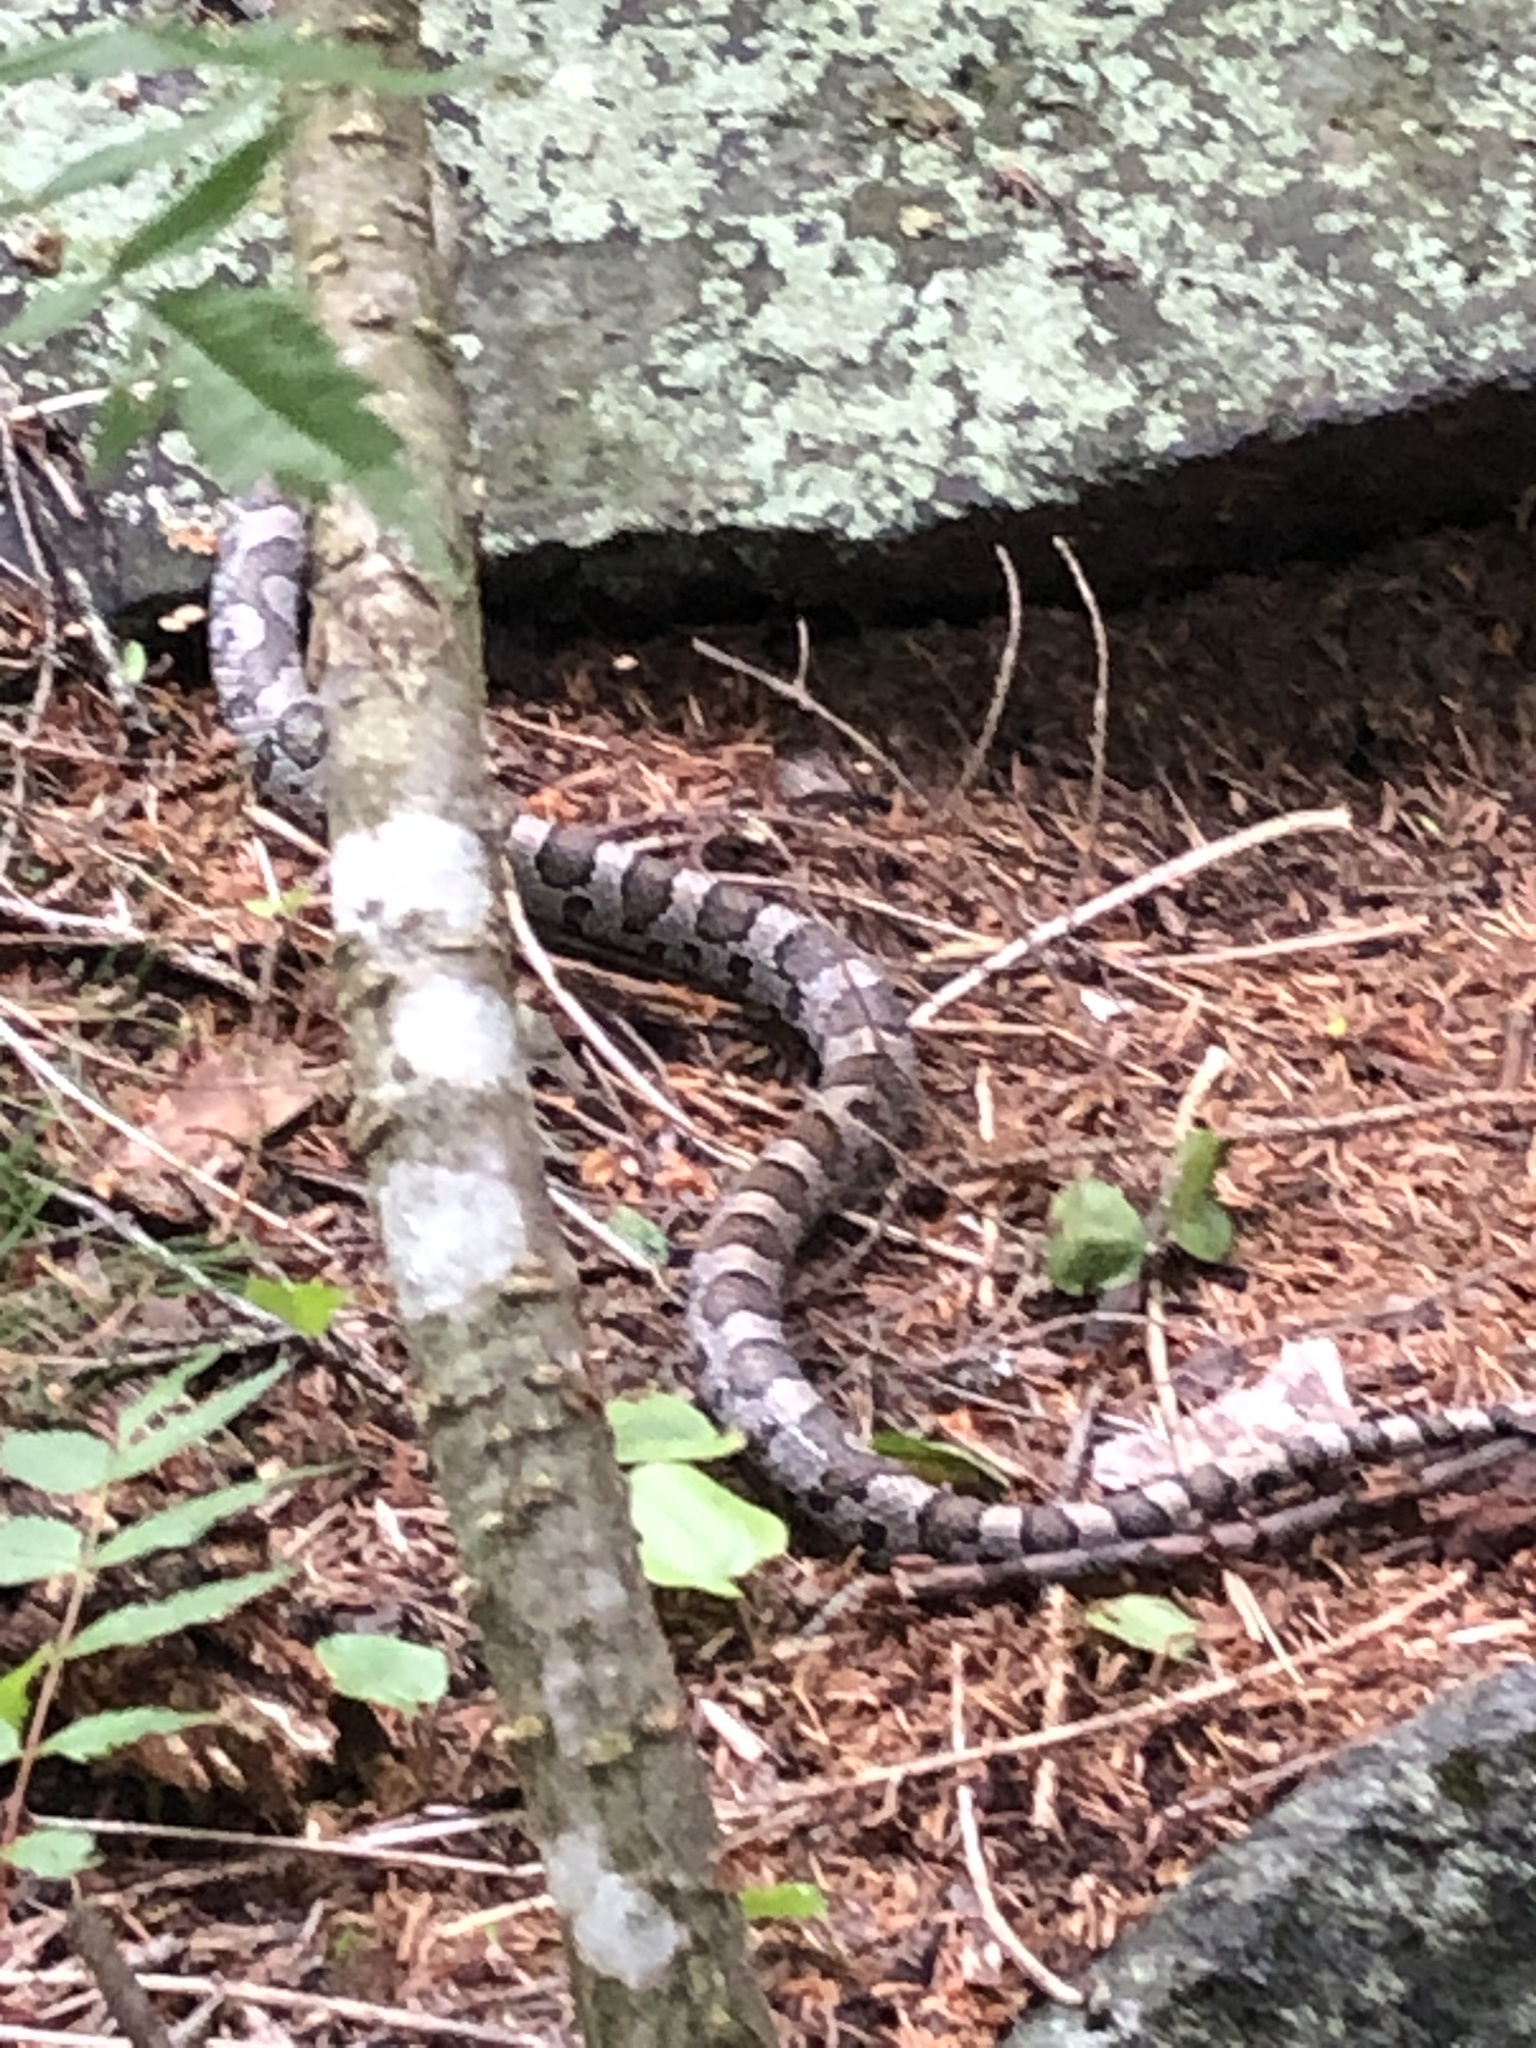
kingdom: Animalia
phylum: Chordata
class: Squamata
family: Colubridae
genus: Lampropeltis
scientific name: Lampropeltis triangulum
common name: Eastern milksnake
